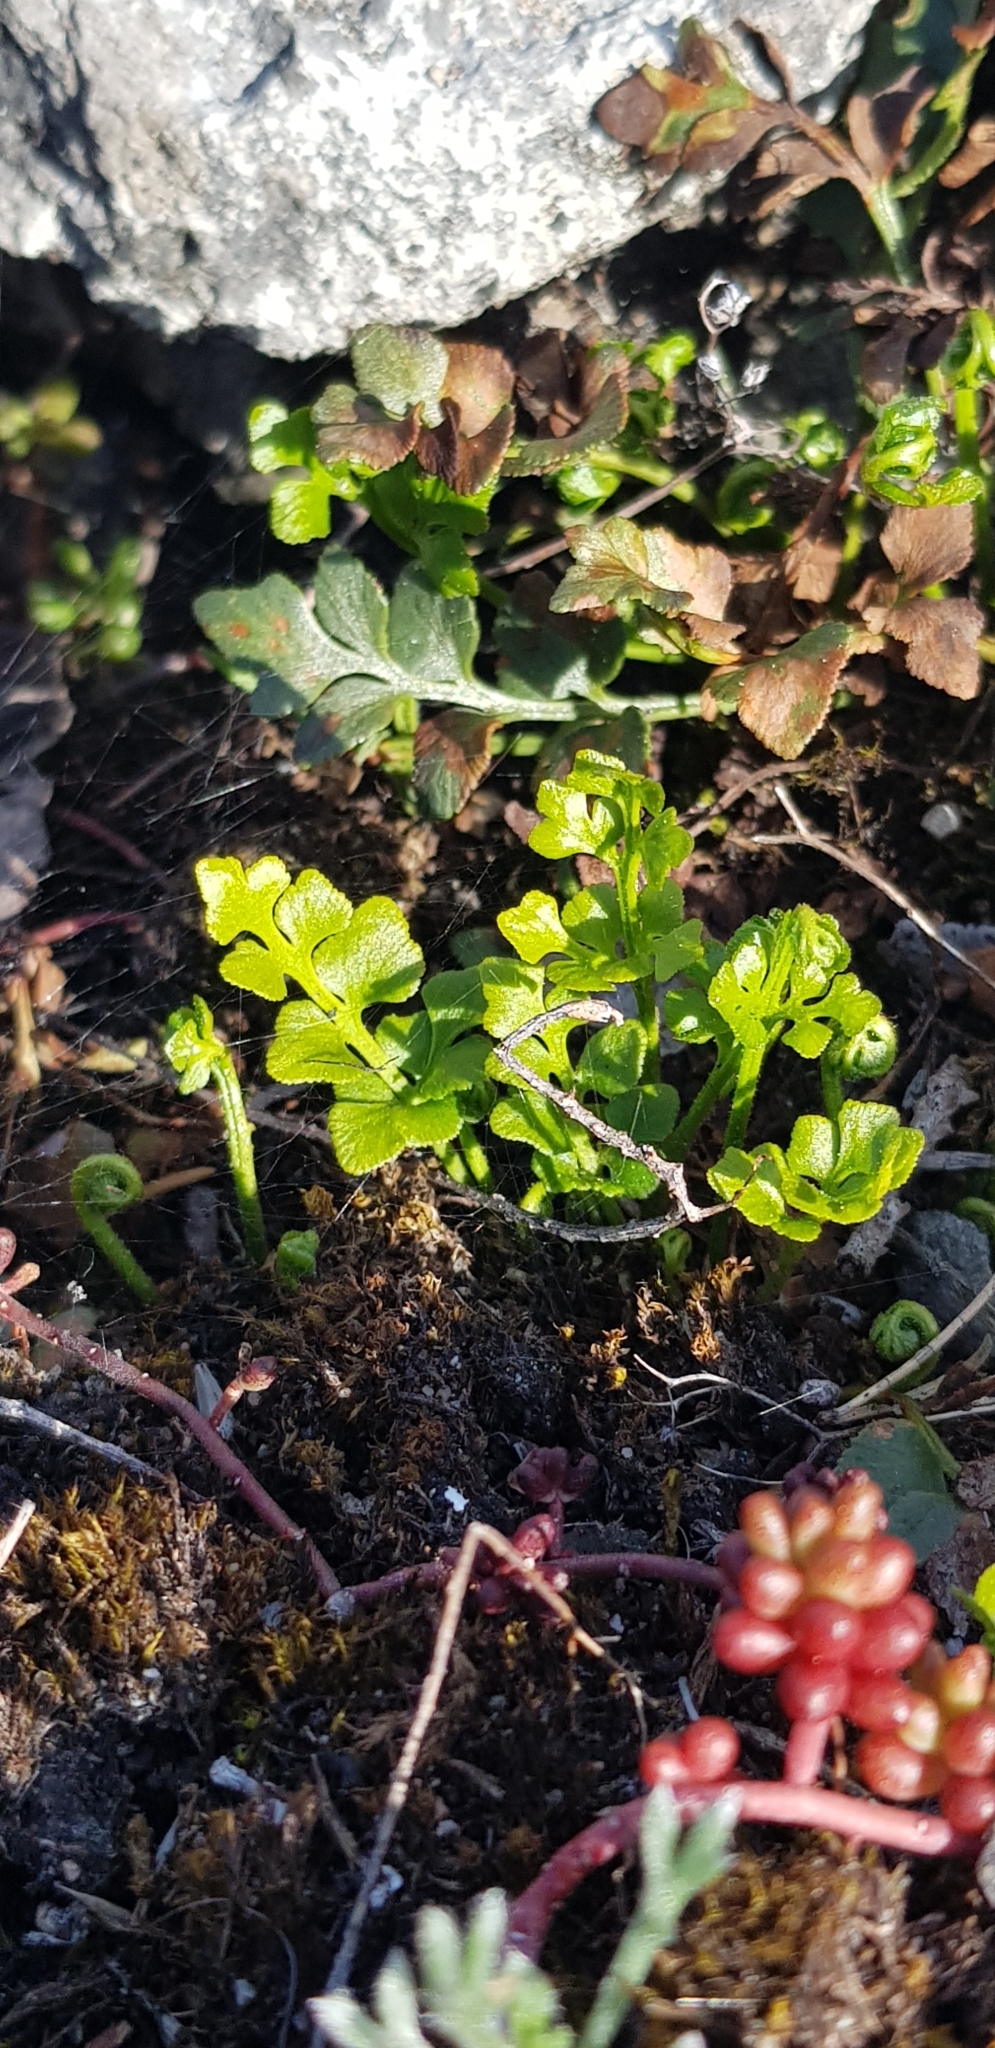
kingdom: Plantae
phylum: Tracheophyta
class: Polypodiopsida
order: Polypodiales
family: Aspleniaceae
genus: Asplenium
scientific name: Asplenium ruta-muraria
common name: Wall-rue
